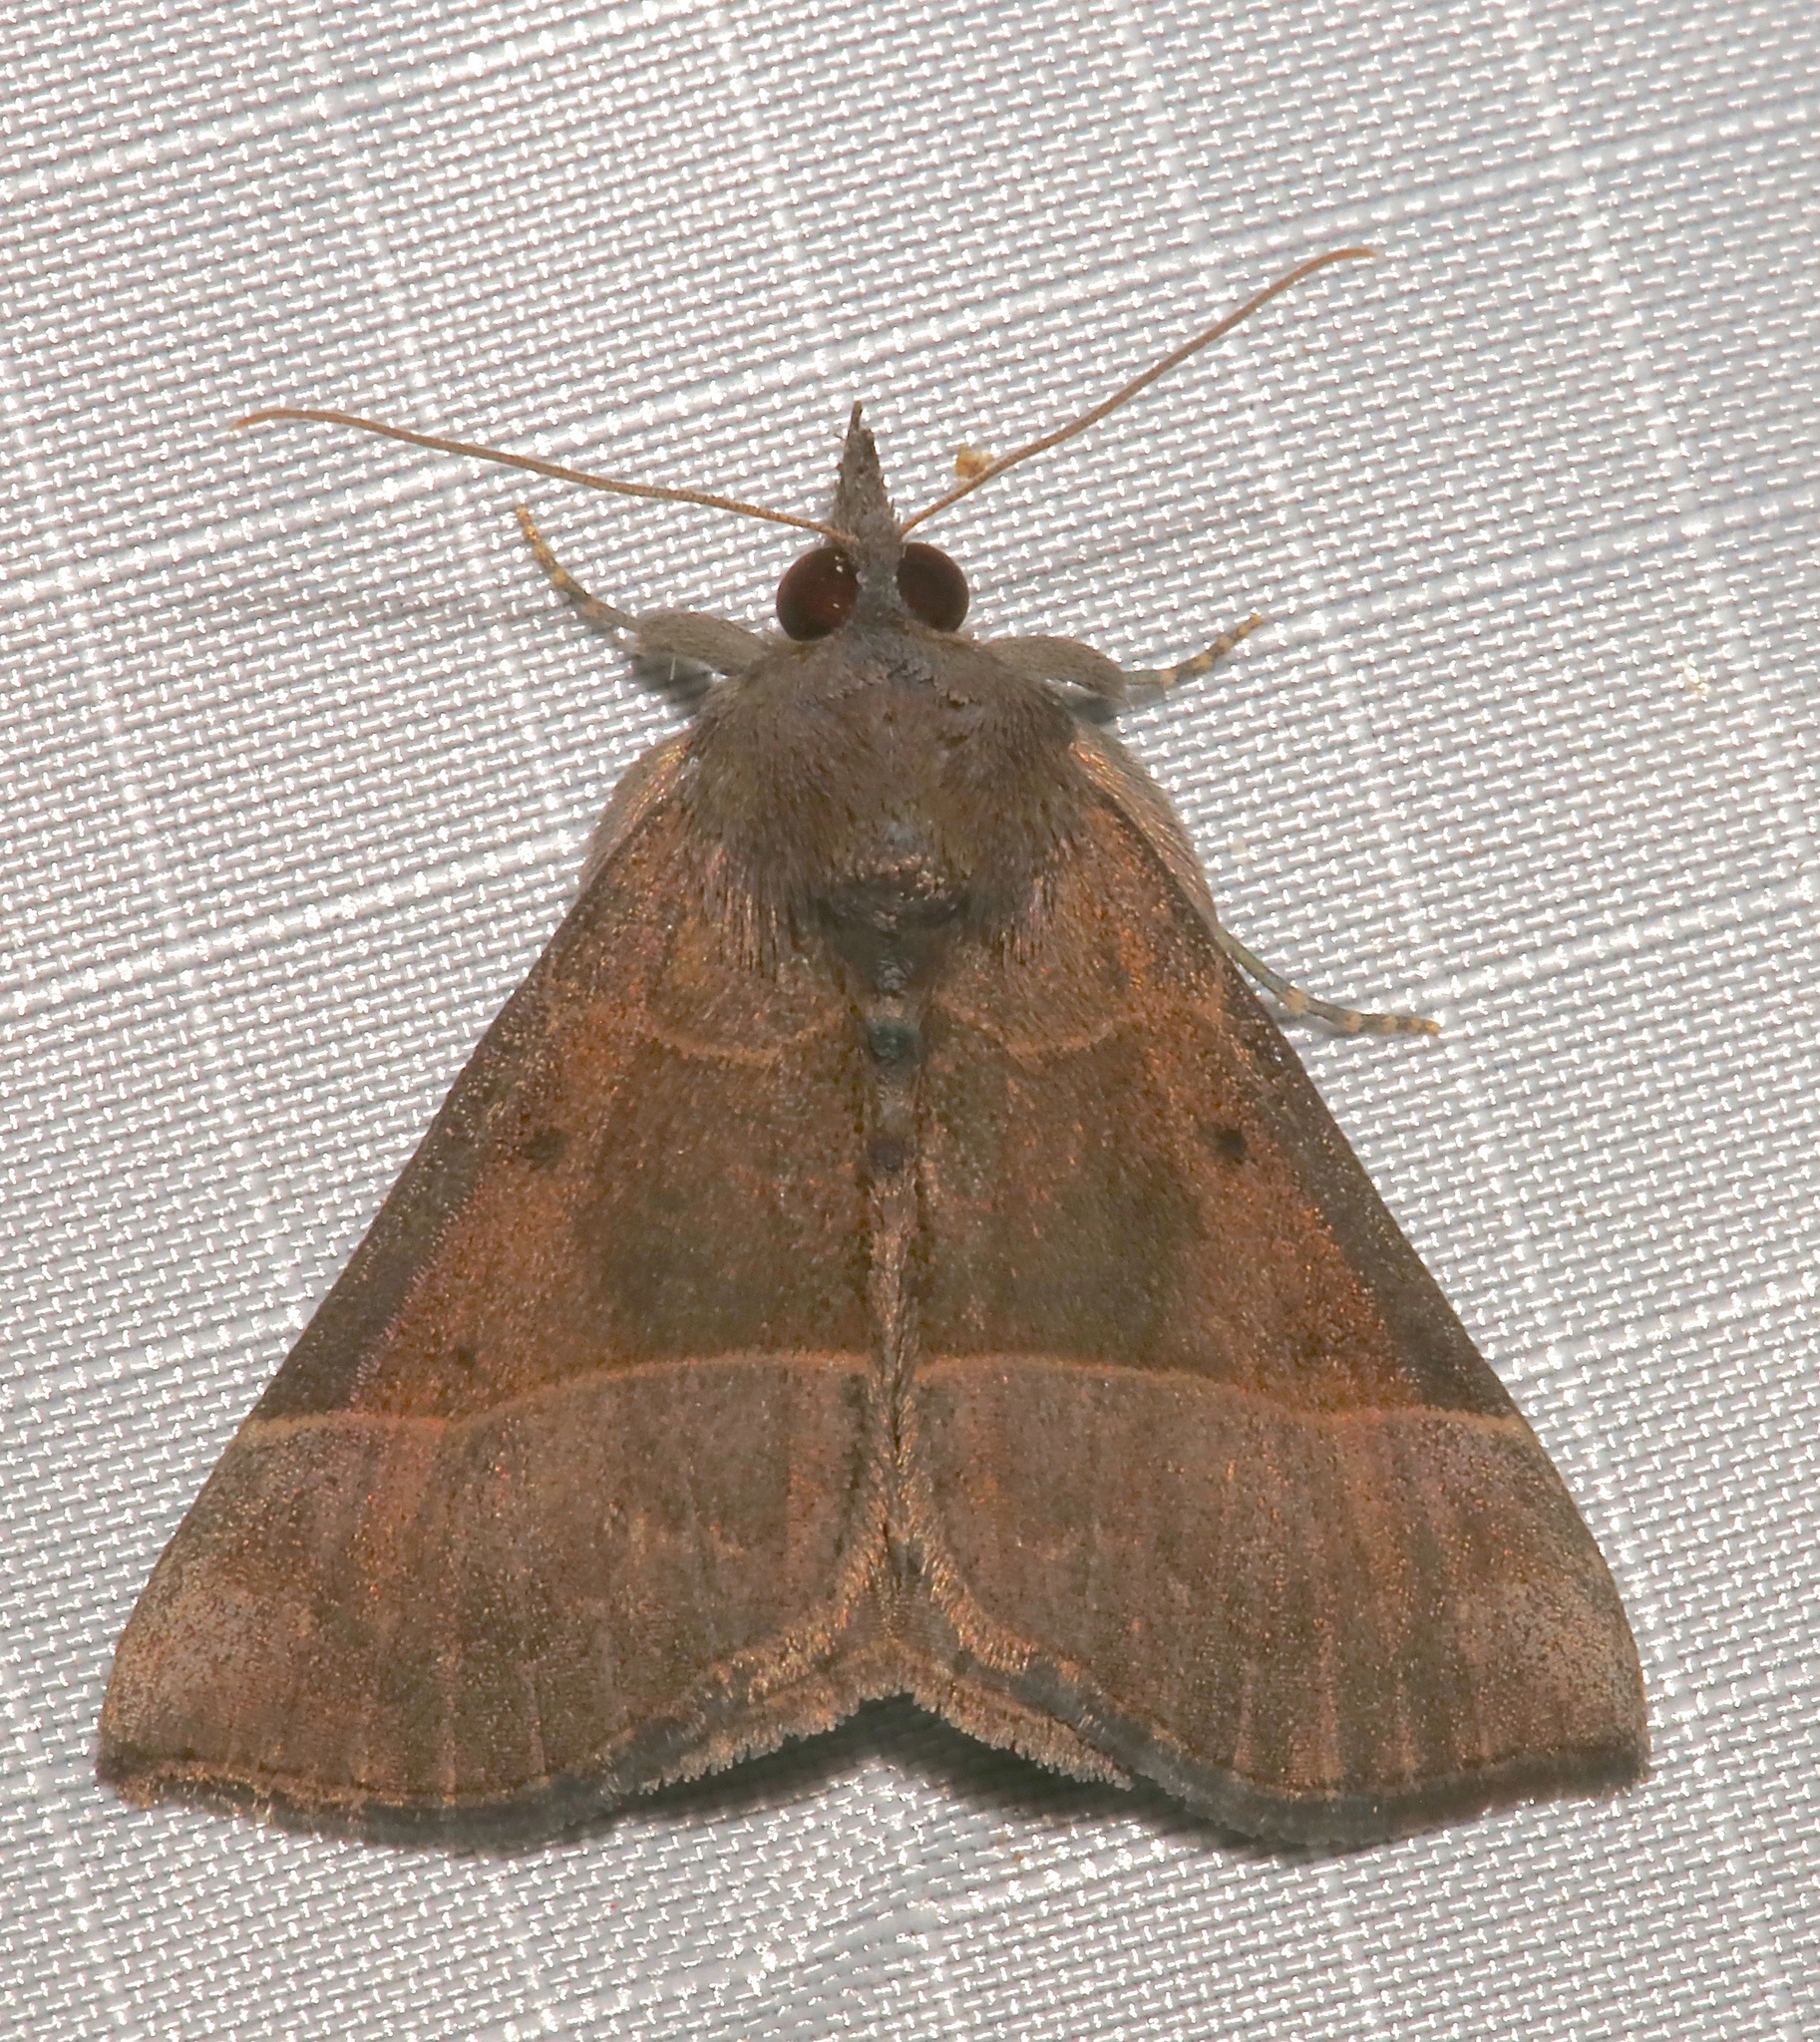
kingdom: Animalia
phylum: Arthropoda
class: Insecta
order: Lepidoptera
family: Erebidae
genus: Hypena
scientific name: Hypena deceptalis
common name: Deceptive snout
